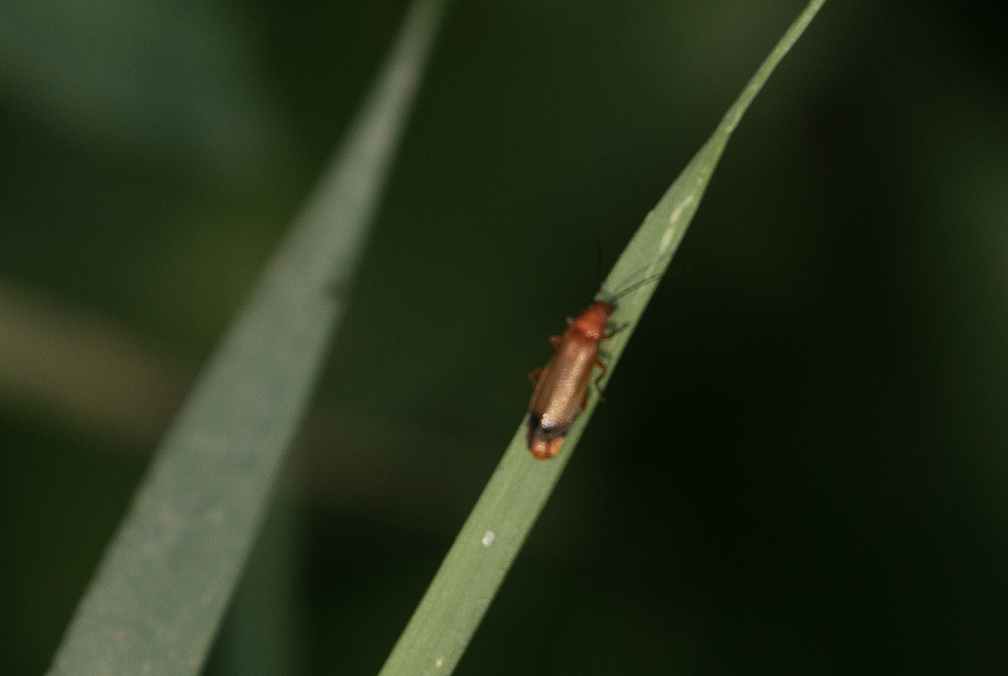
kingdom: Animalia
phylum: Arthropoda
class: Insecta
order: Coleoptera
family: Cantharidae
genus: Rhagonycha
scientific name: Rhagonycha fulva
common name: Common red soldier beetle
